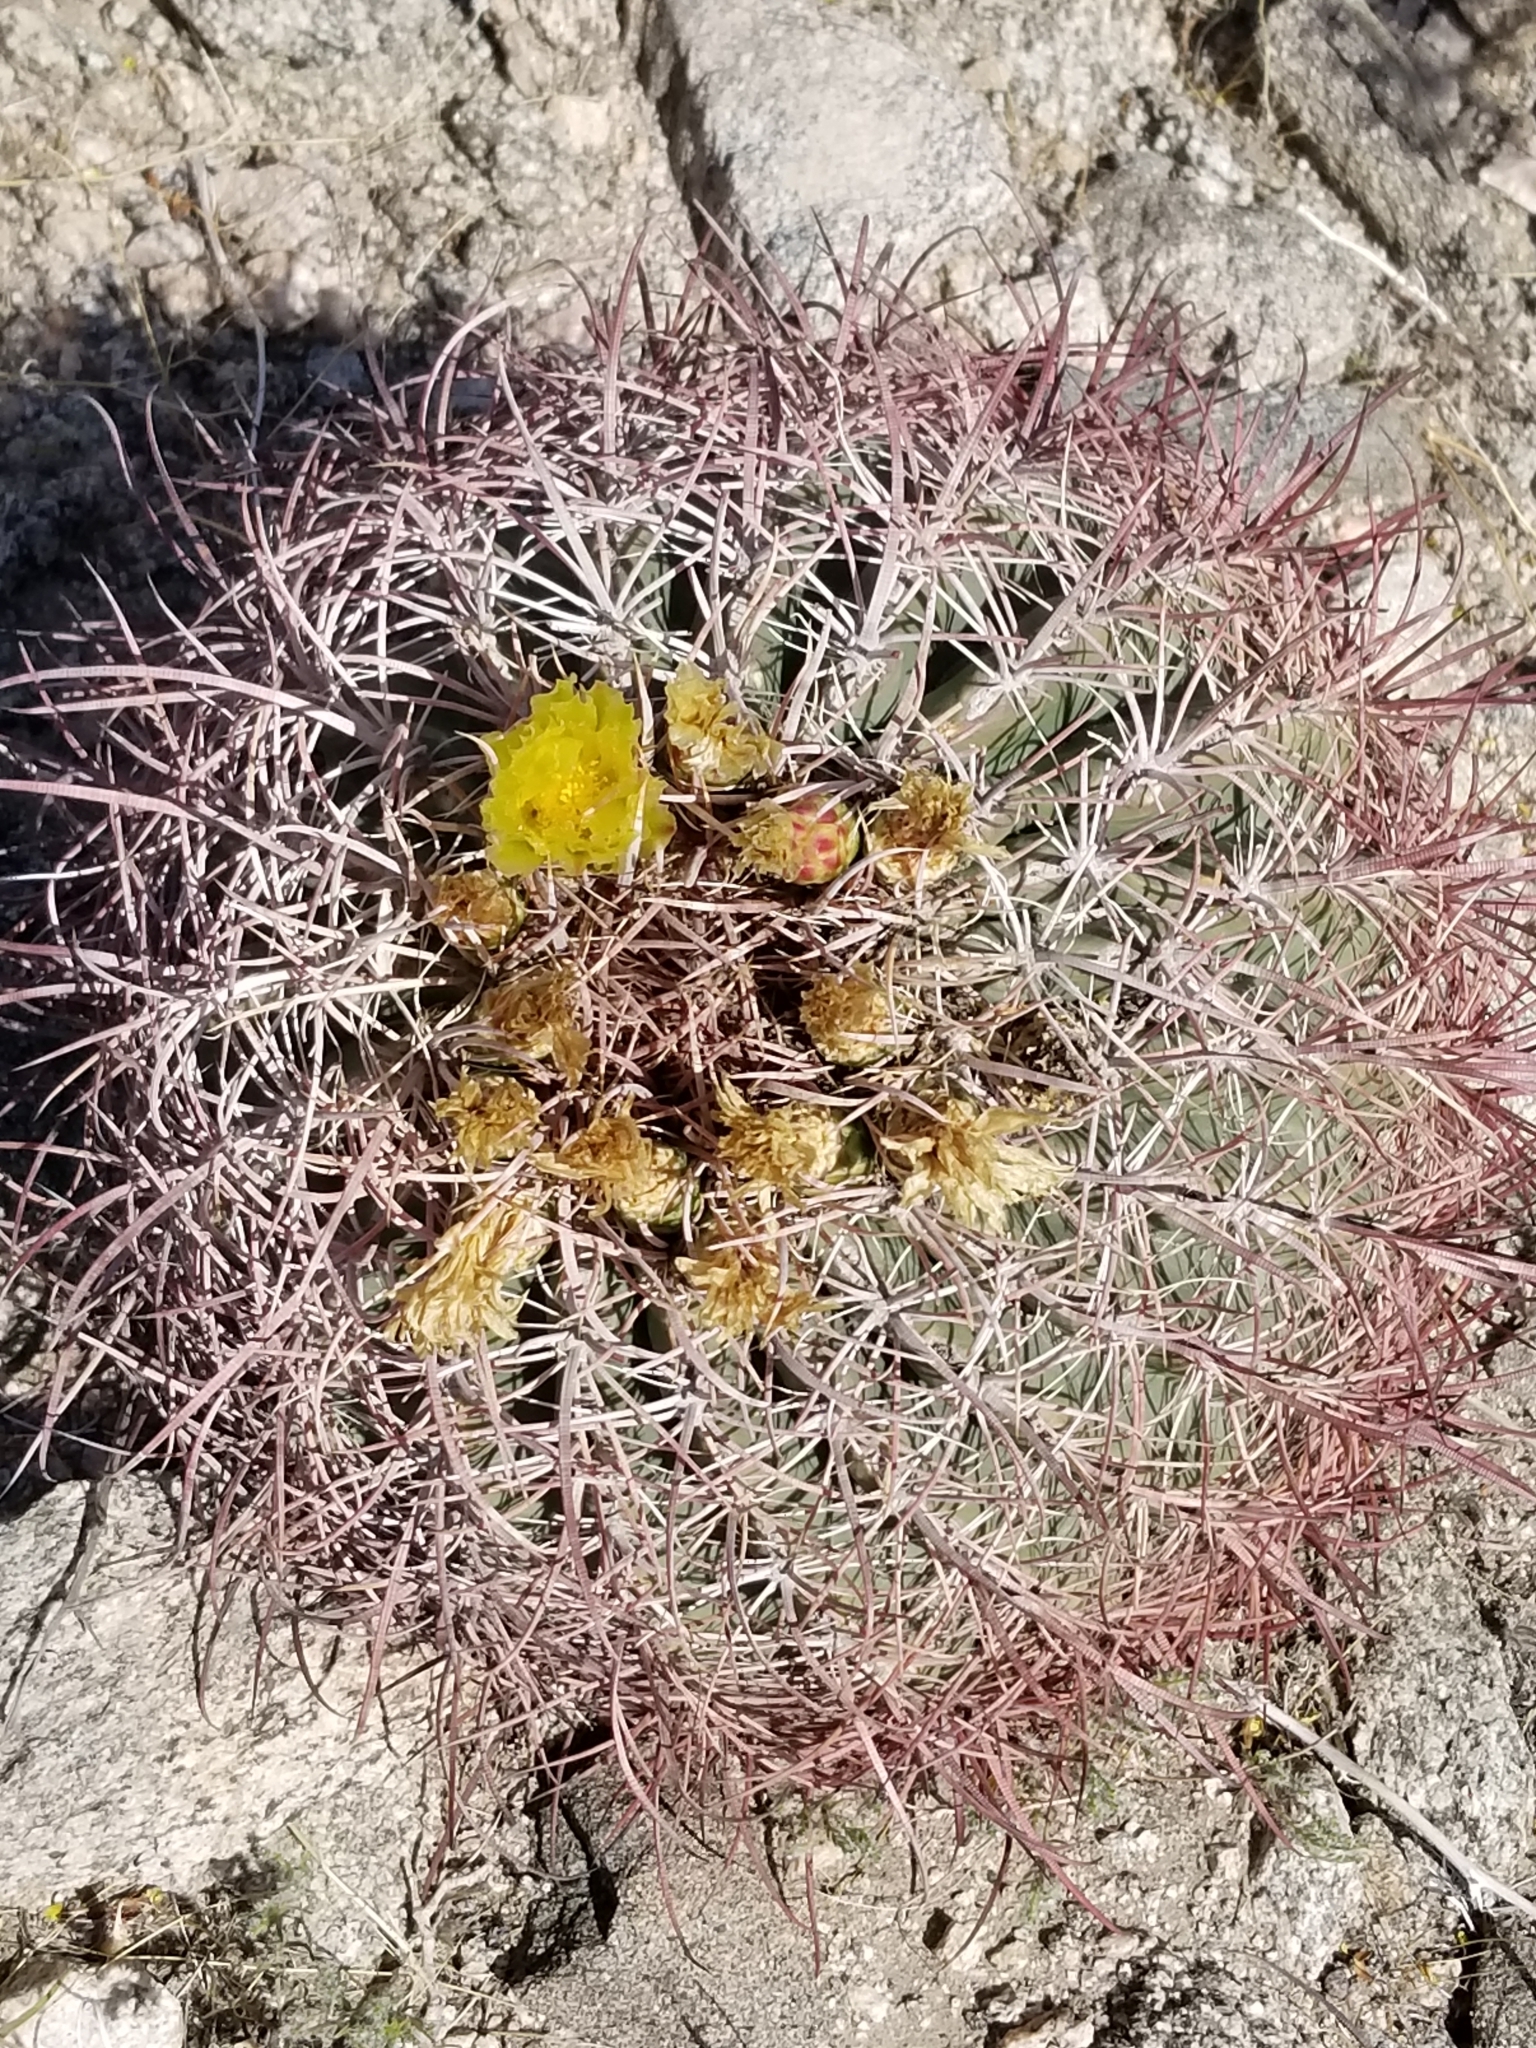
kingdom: Plantae
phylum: Tracheophyta
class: Magnoliopsida
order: Caryophyllales
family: Cactaceae
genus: Ferocactus
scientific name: Ferocactus cylindraceus
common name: California barrel cactus
